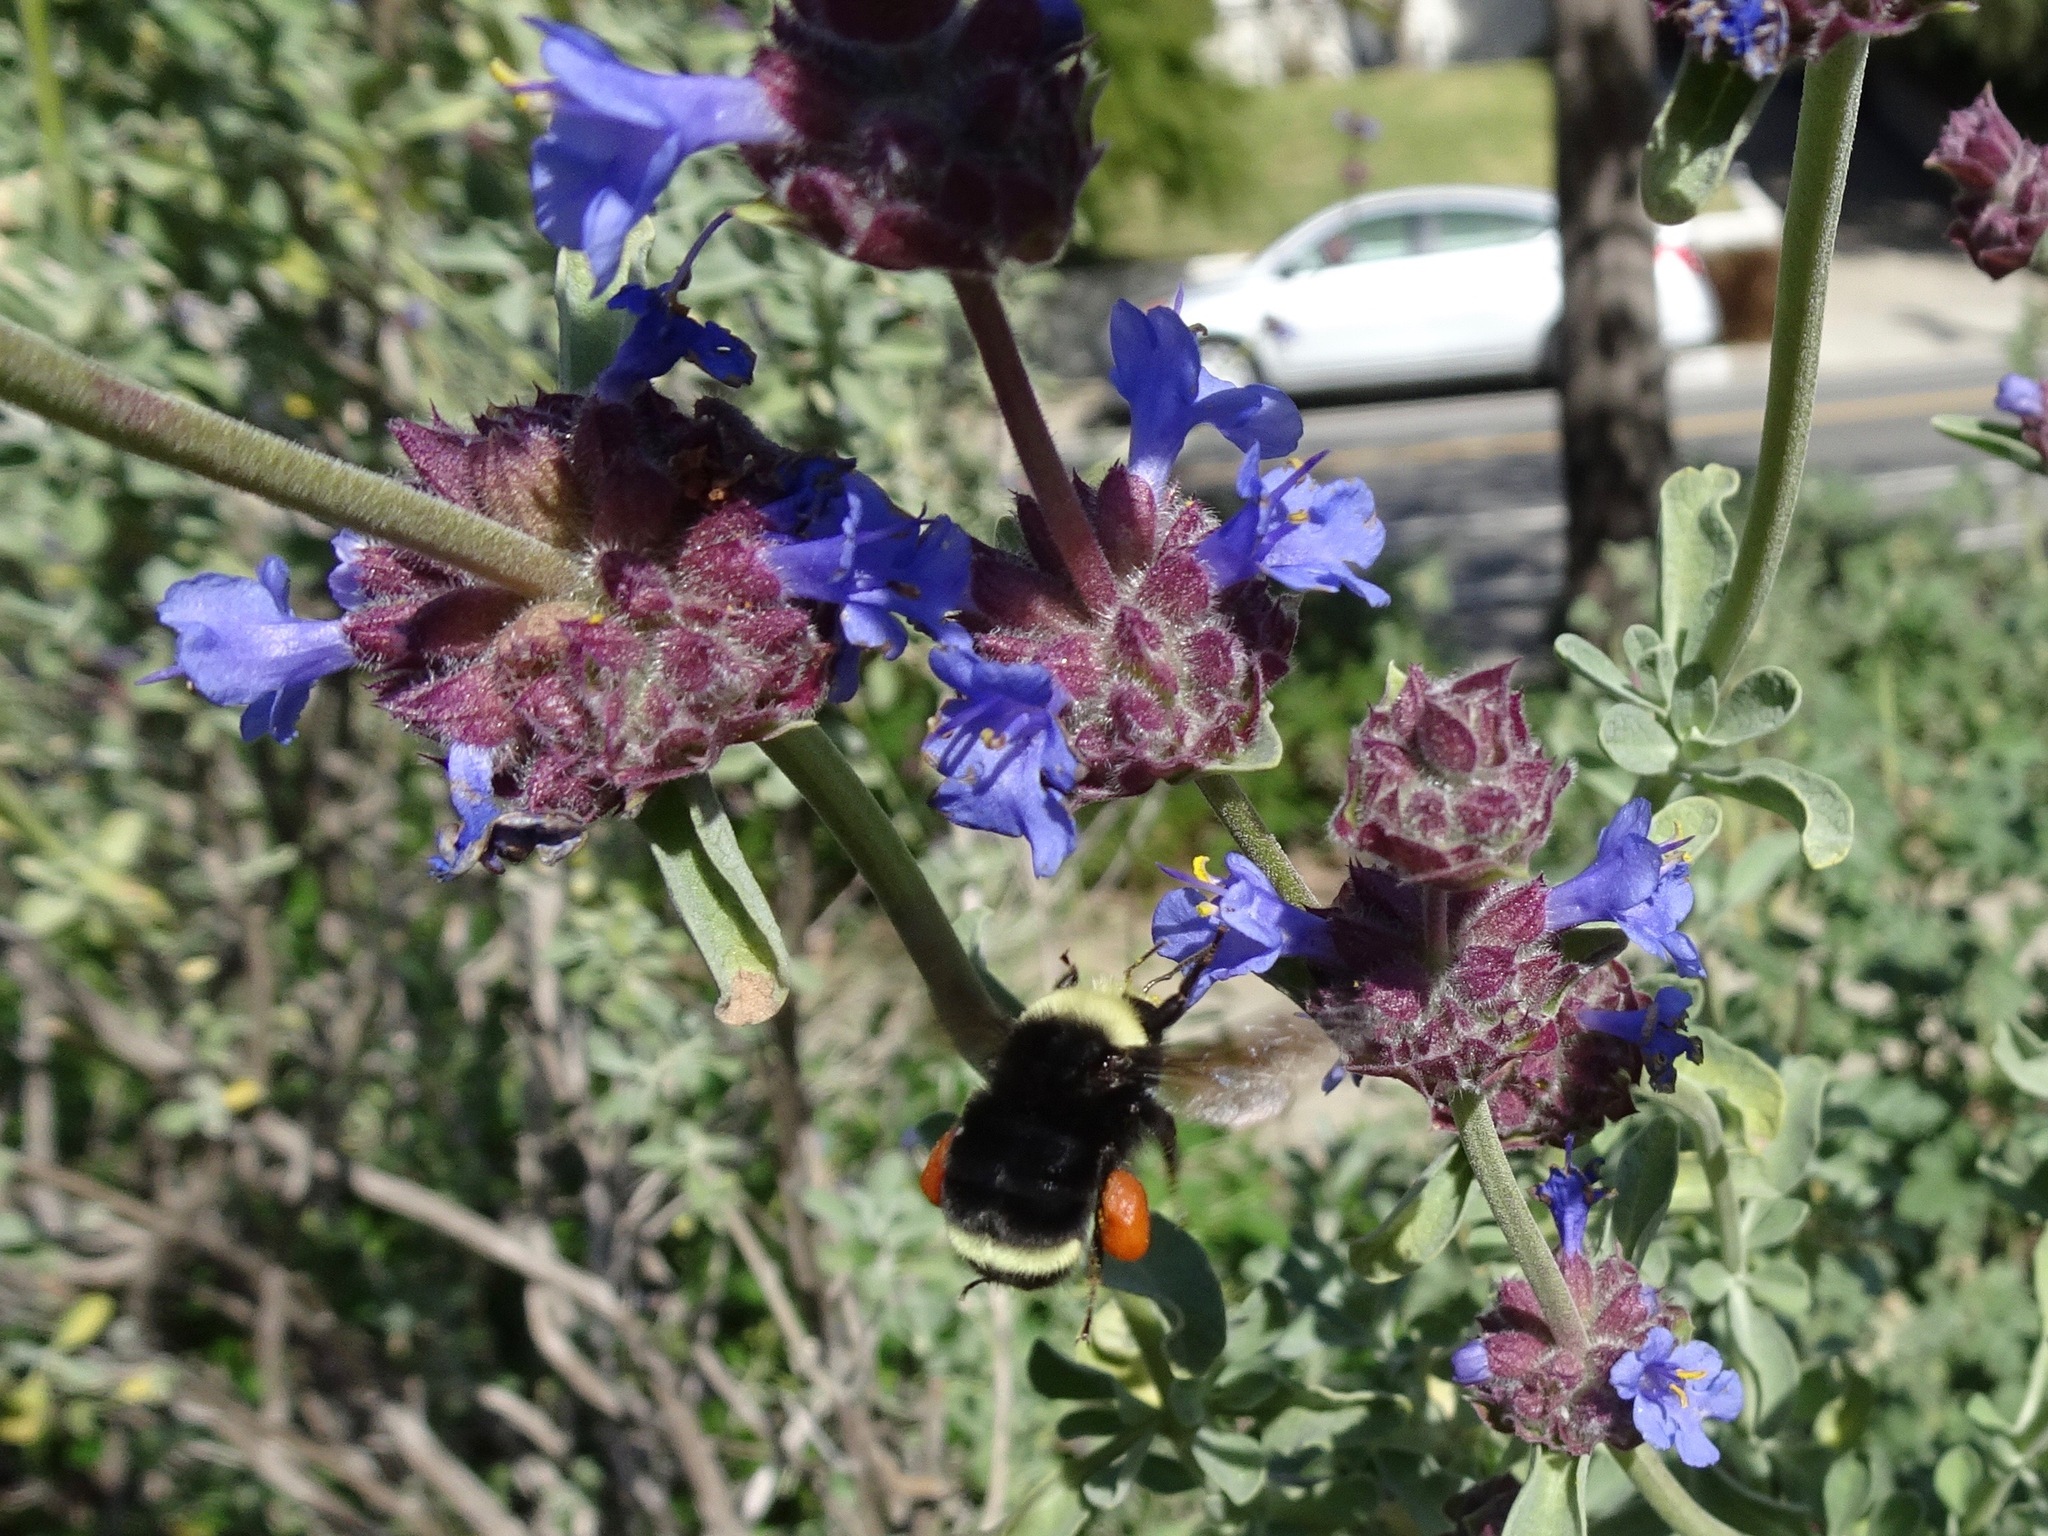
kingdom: Animalia
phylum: Arthropoda
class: Insecta
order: Hymenoptera
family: Apidae
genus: Bombus
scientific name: Bombus vosnesenskii
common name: Vosnesensky bumble bee
